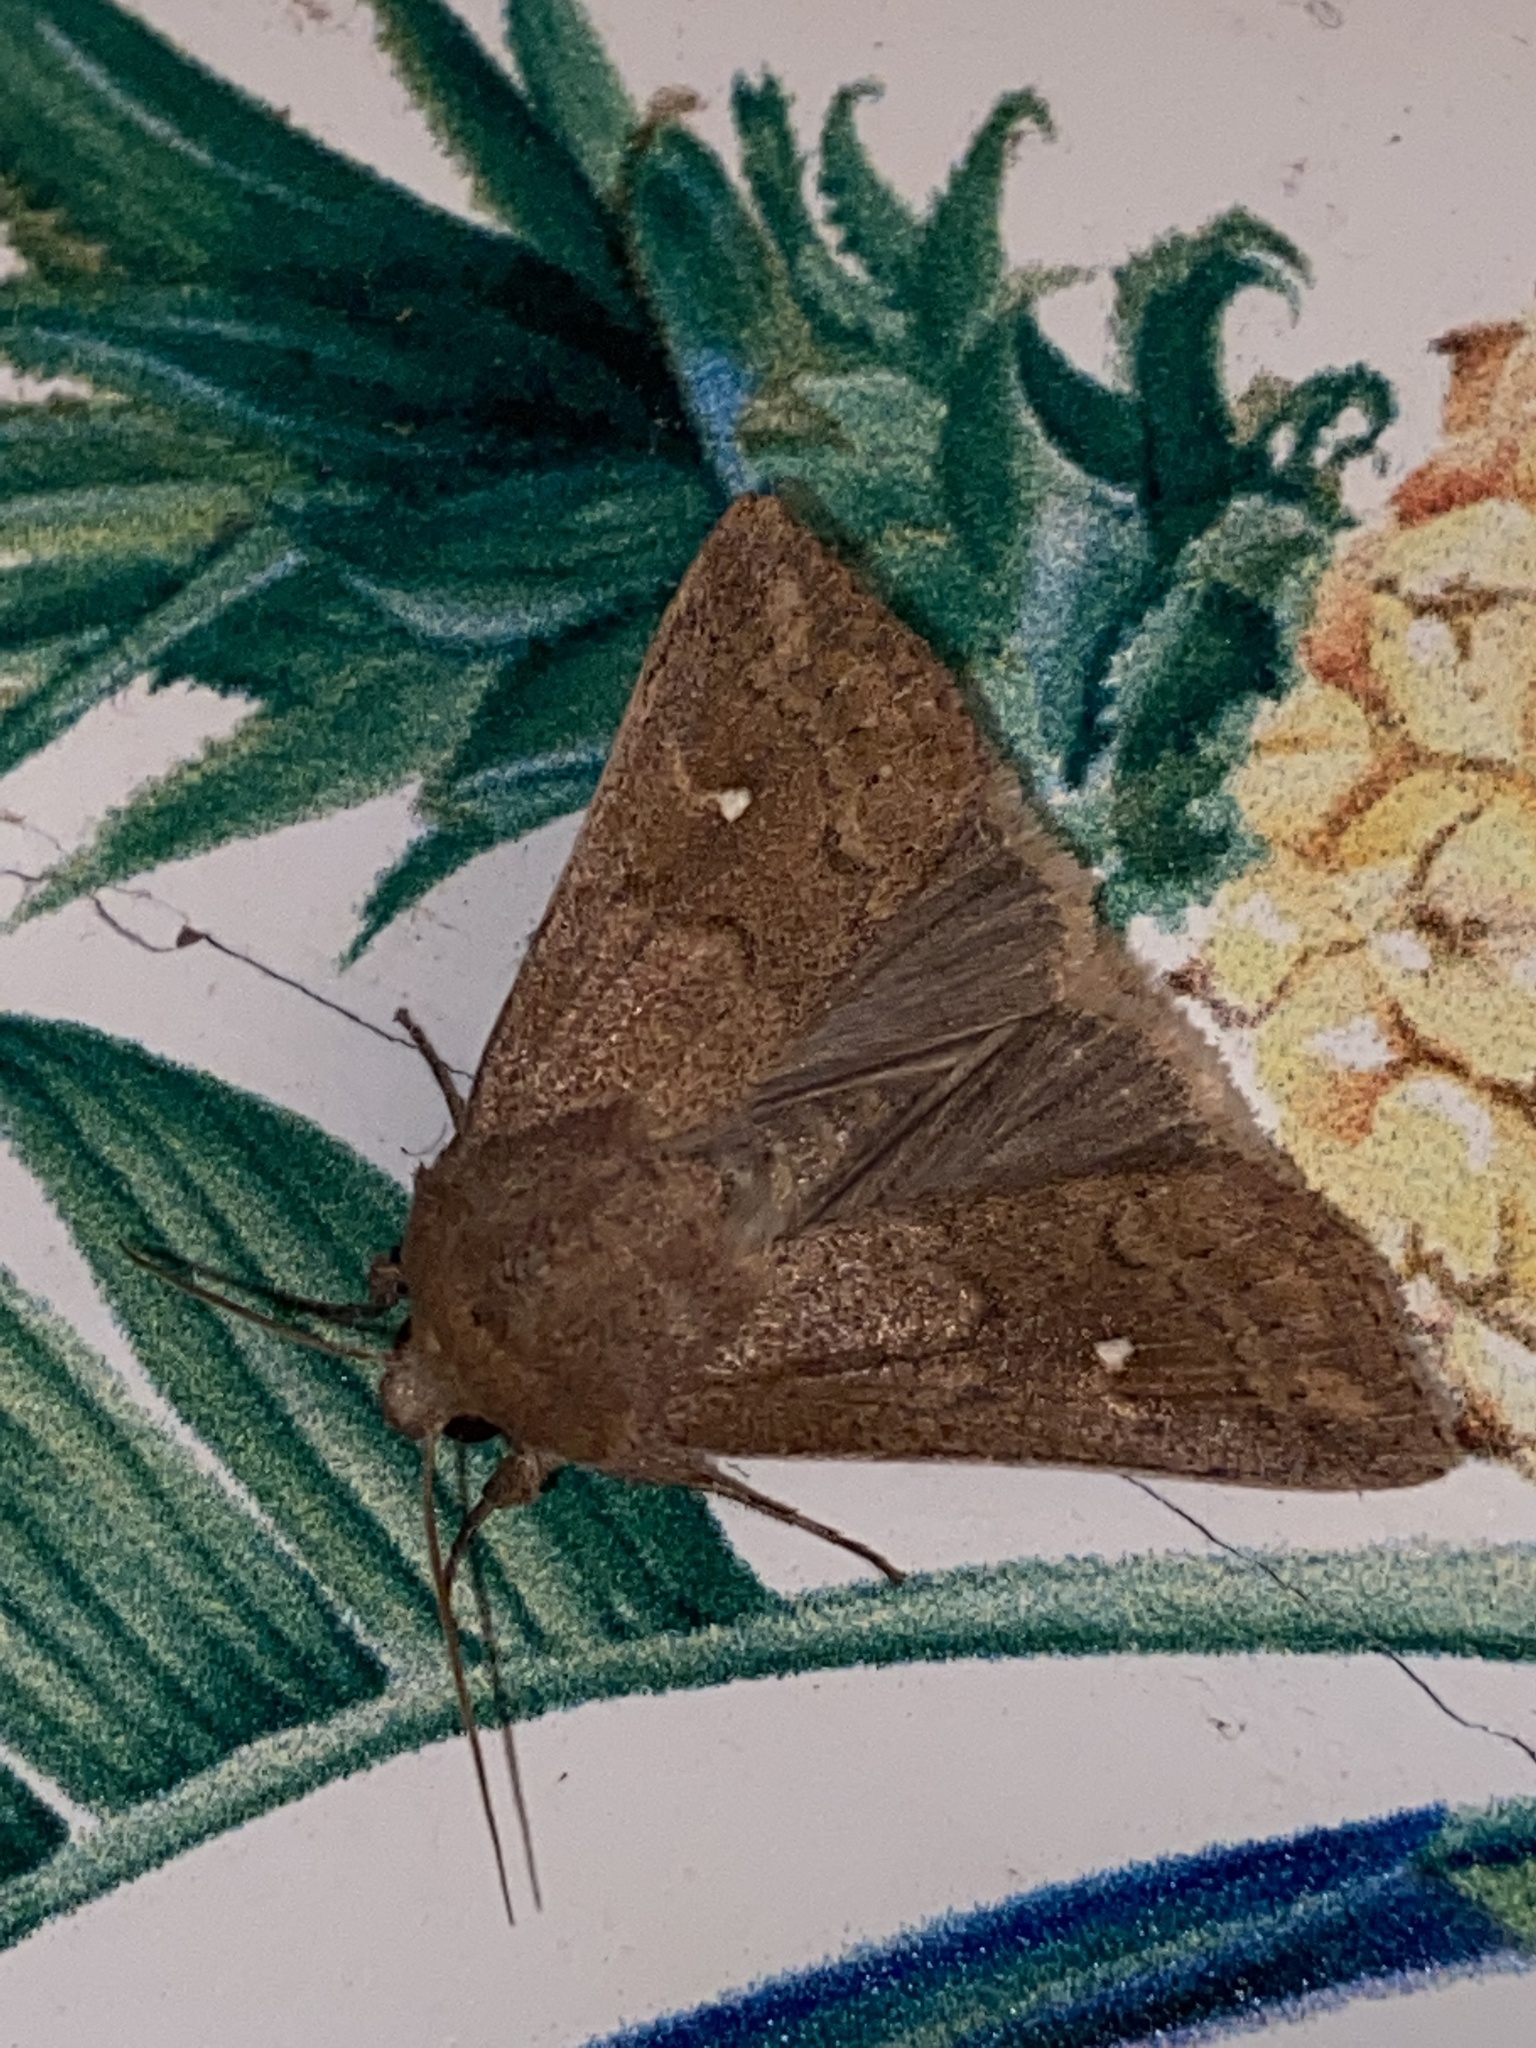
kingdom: Animalia
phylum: Arthropoda
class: Insecta
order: Lepidoptera
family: Noctuidae
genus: Mythimna
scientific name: Mythimna albipuncta
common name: White-point
